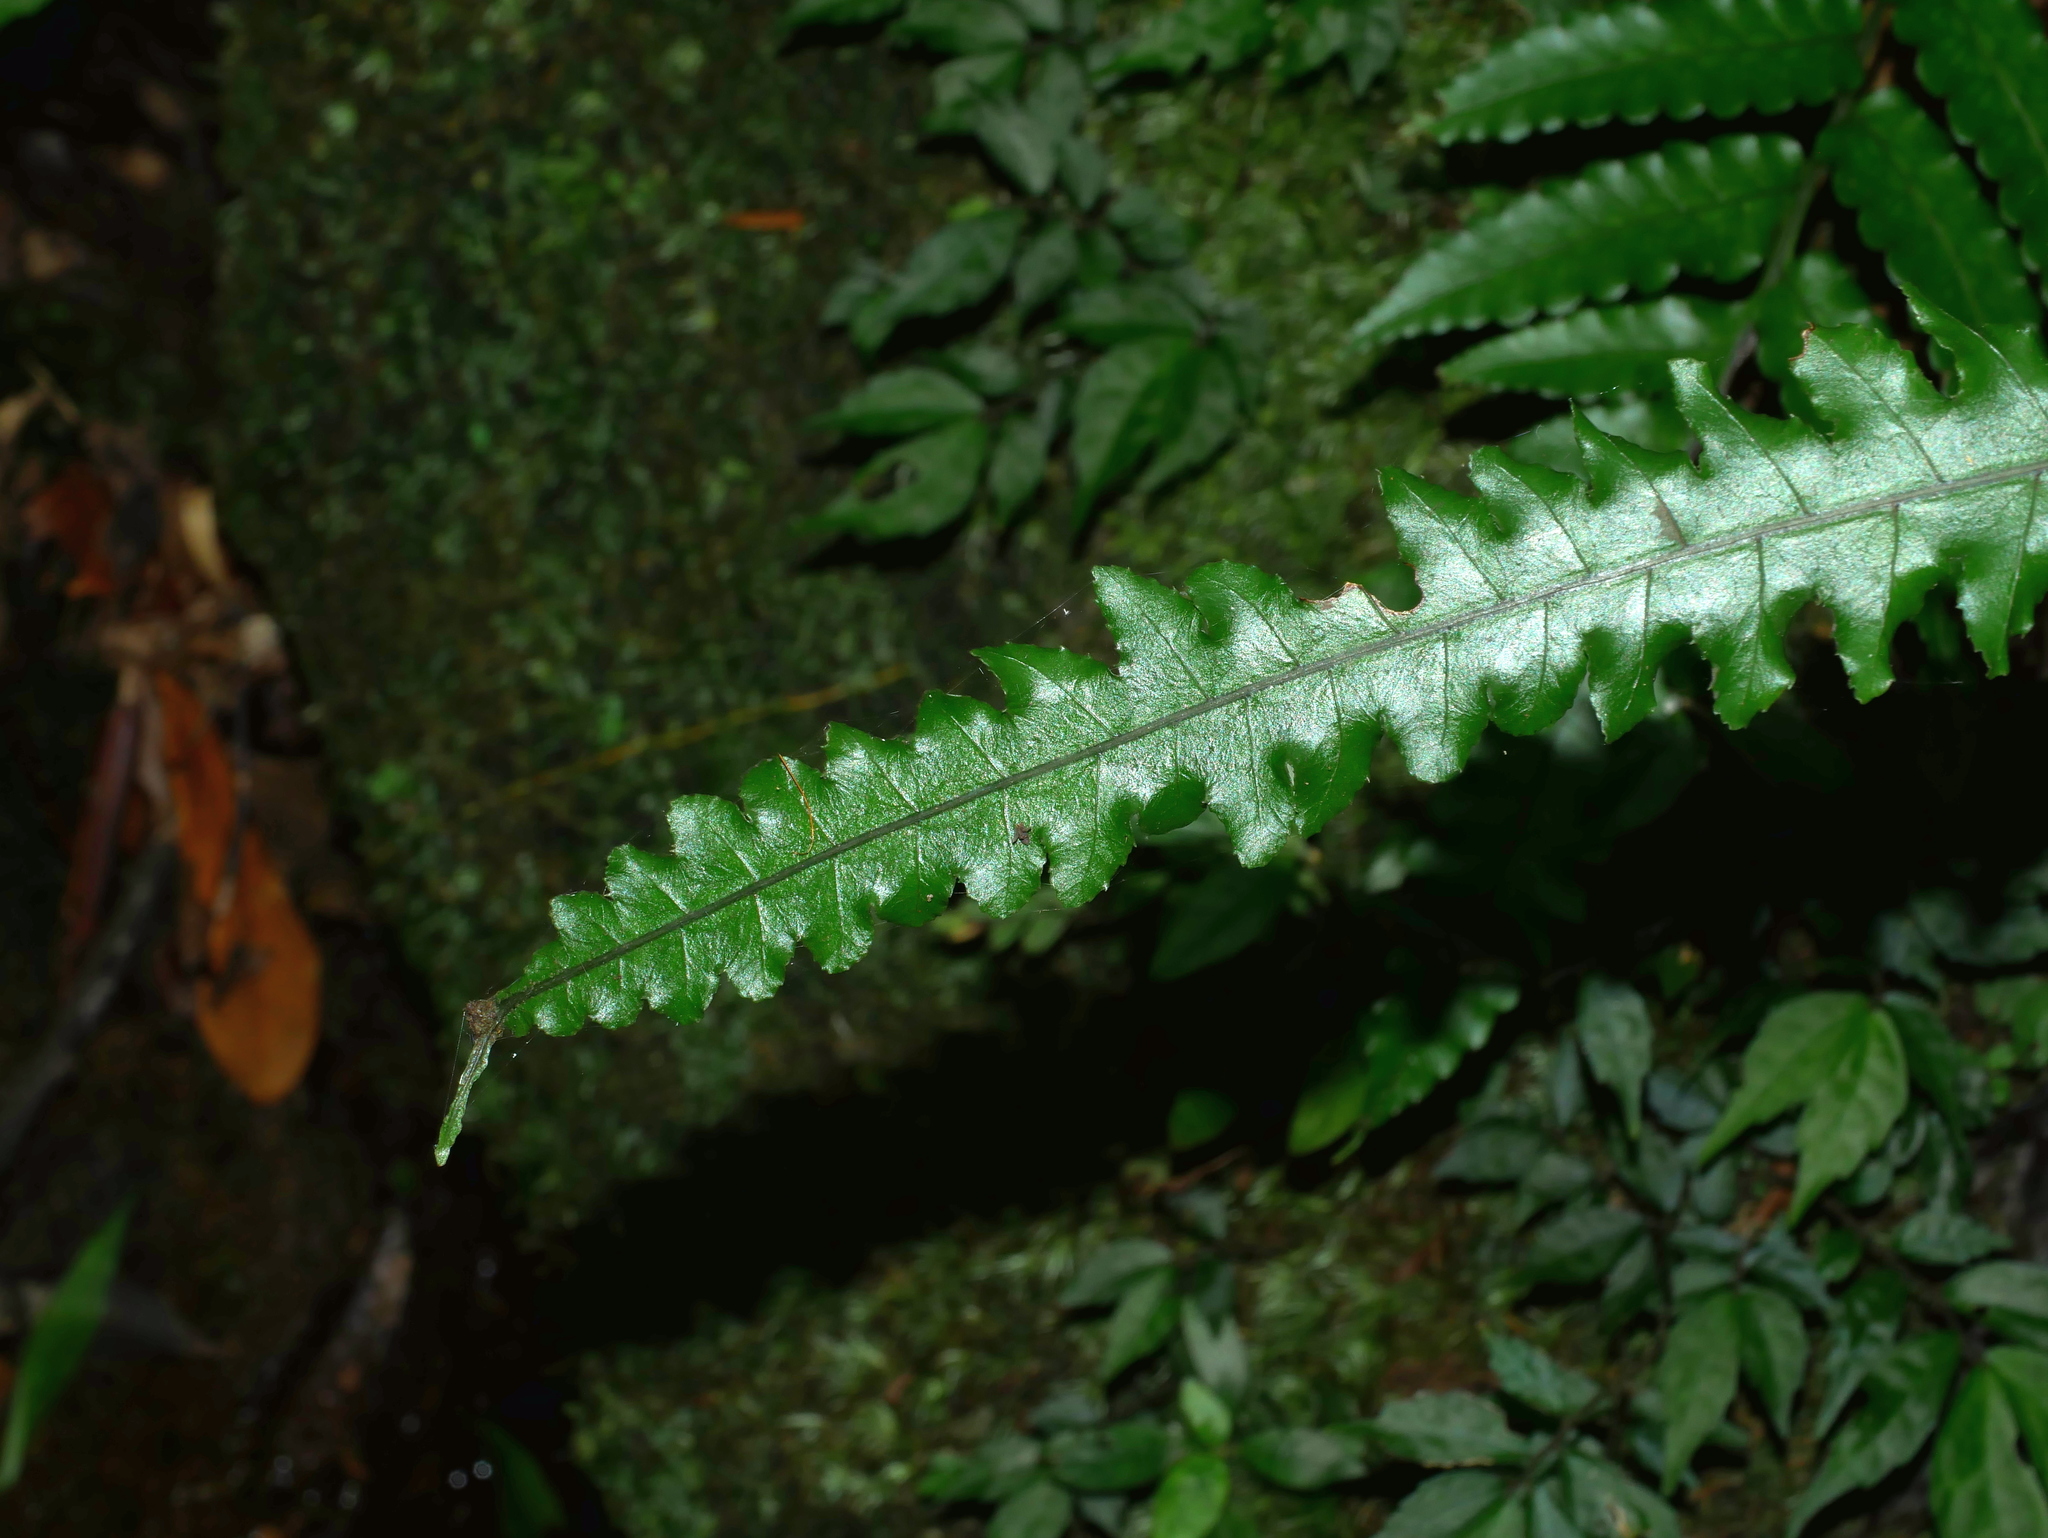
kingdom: Plantae
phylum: Tracheophyta
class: Polypodiopsida
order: Polypodiales
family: Dryopteridaceae
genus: Bolbitis
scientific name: Bolbitis subcordata
